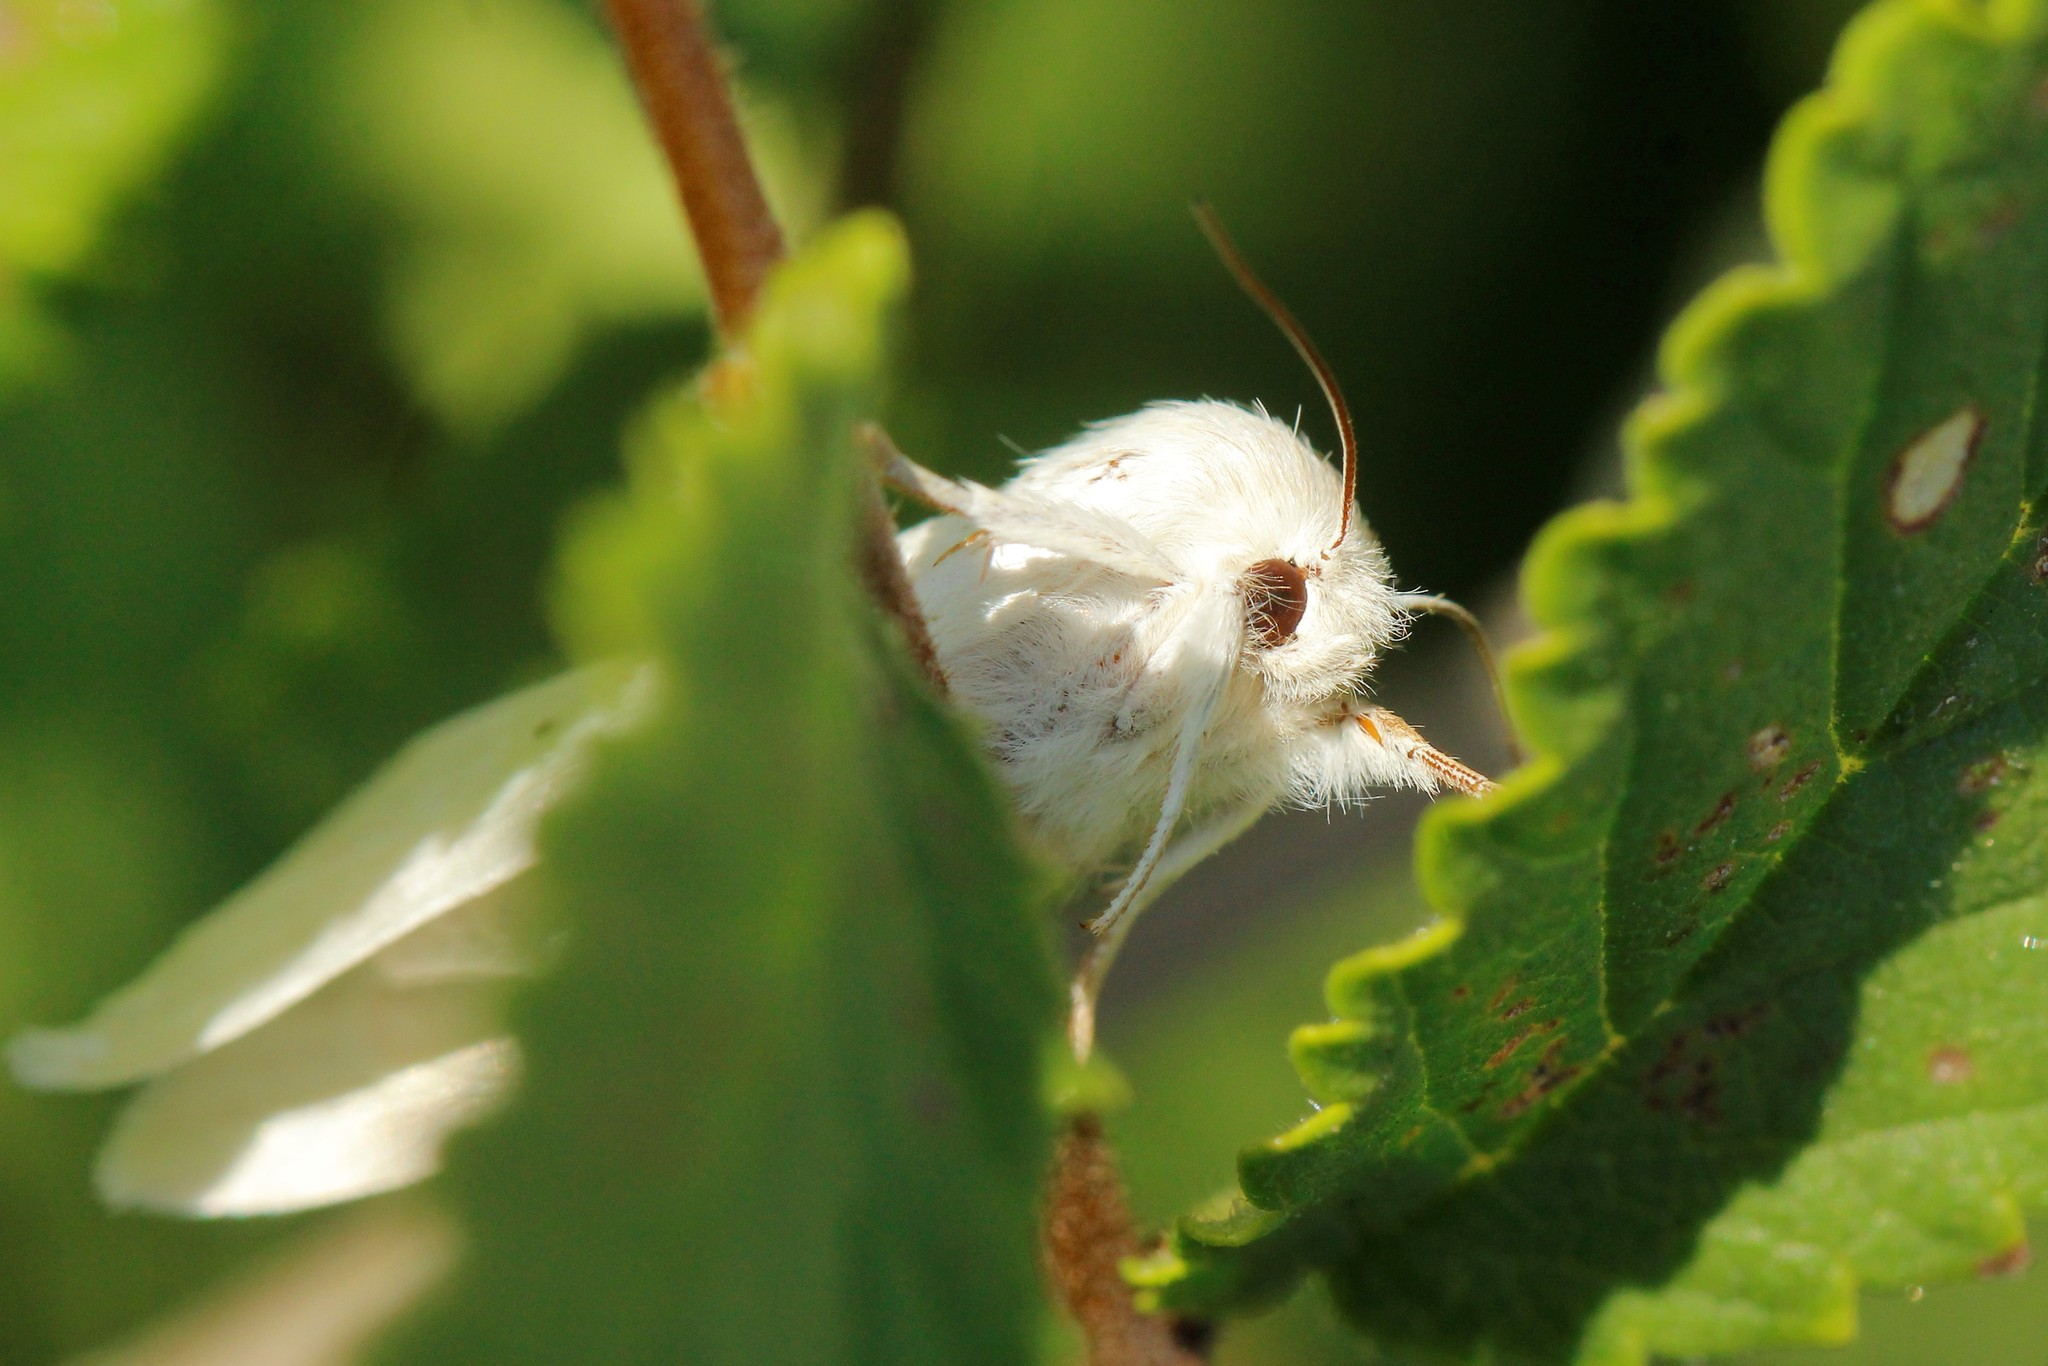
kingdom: Animalia
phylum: Arthropoda
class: Insecta
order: Lepidoptera
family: Noctuidae
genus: Acronicta
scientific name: Acronicta nervosa
